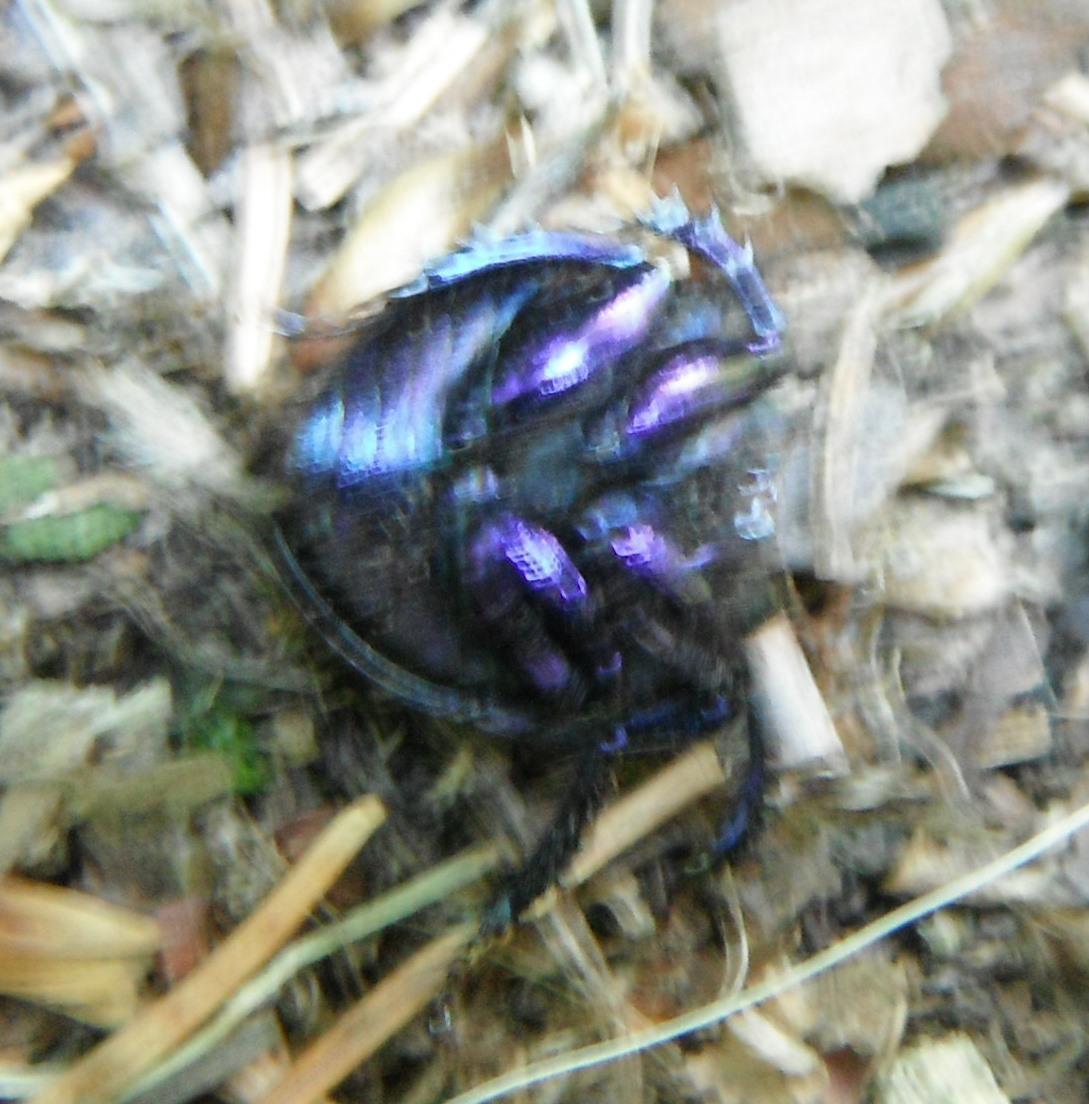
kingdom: Animalia
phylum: Arthropoda
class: Insecta
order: Coleoptera
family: Geotrupidae
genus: Anoplotrupes
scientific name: Anoplotrupes stercorosus
